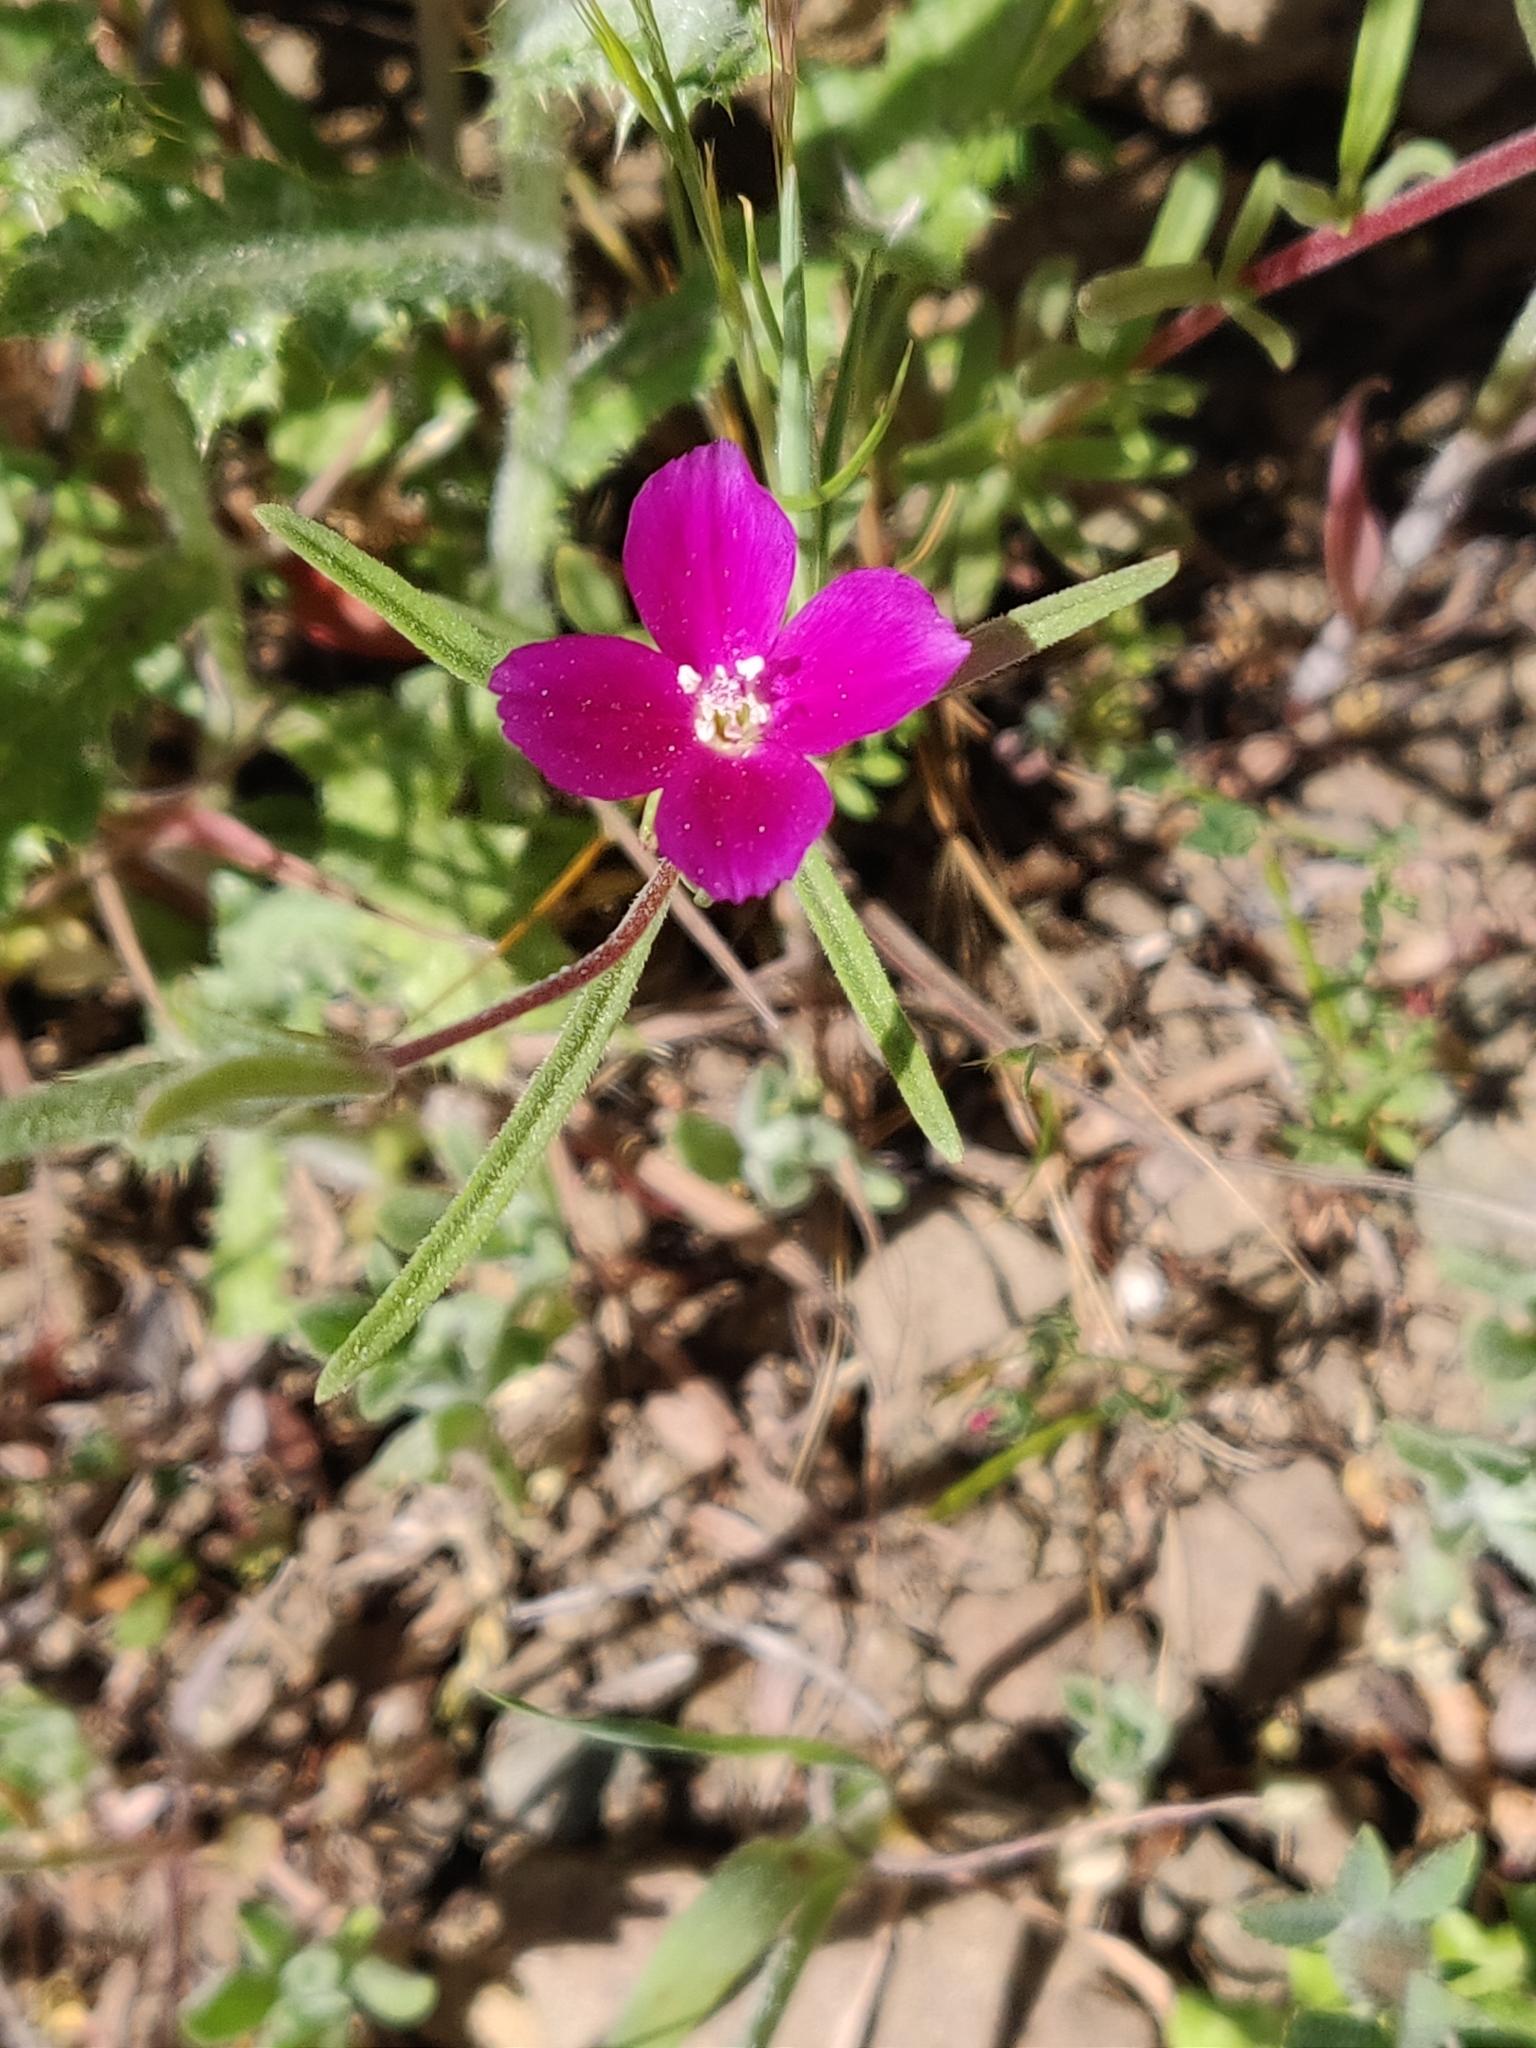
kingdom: Plantae
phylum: Tracheophyta
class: Magnoliopsida
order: Myrtales
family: Onagraceae
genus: Clarkia
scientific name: Clarkia purpurea
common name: Purple clarkia
